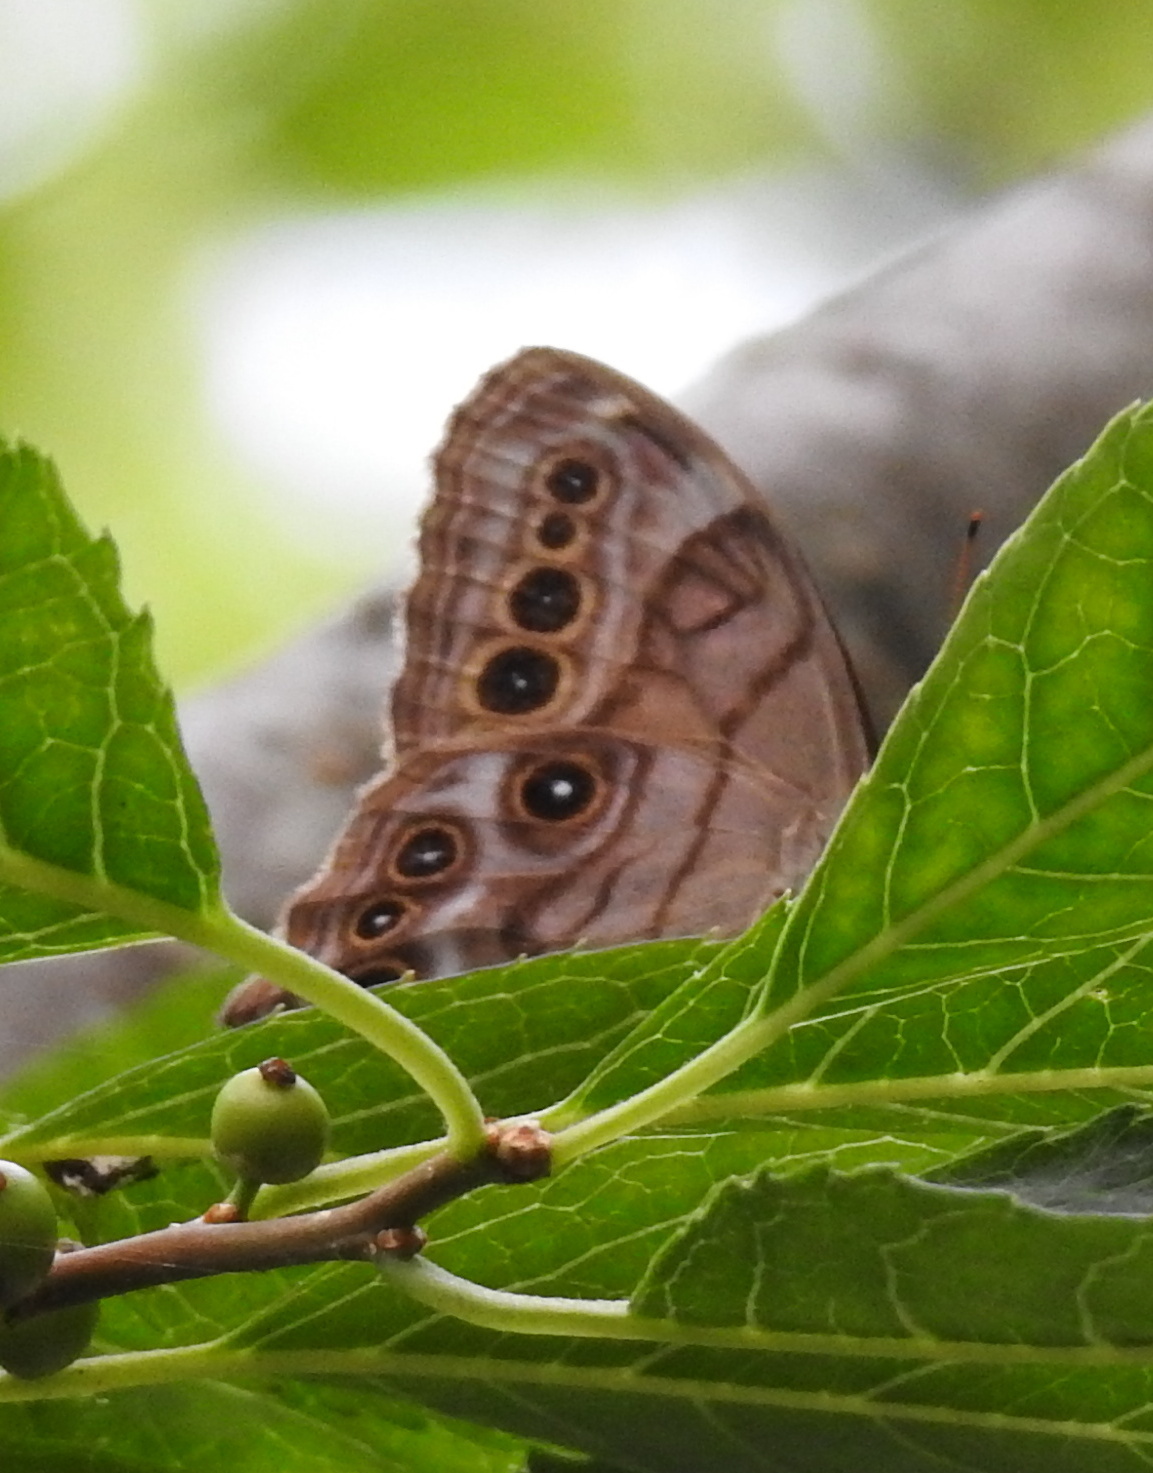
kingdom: Animalia
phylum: Arthropoda
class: Insecta
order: Lepidoptera
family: Nymphalidae
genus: Lethe
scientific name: Lethe anthedon
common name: Northern pearly-eye
